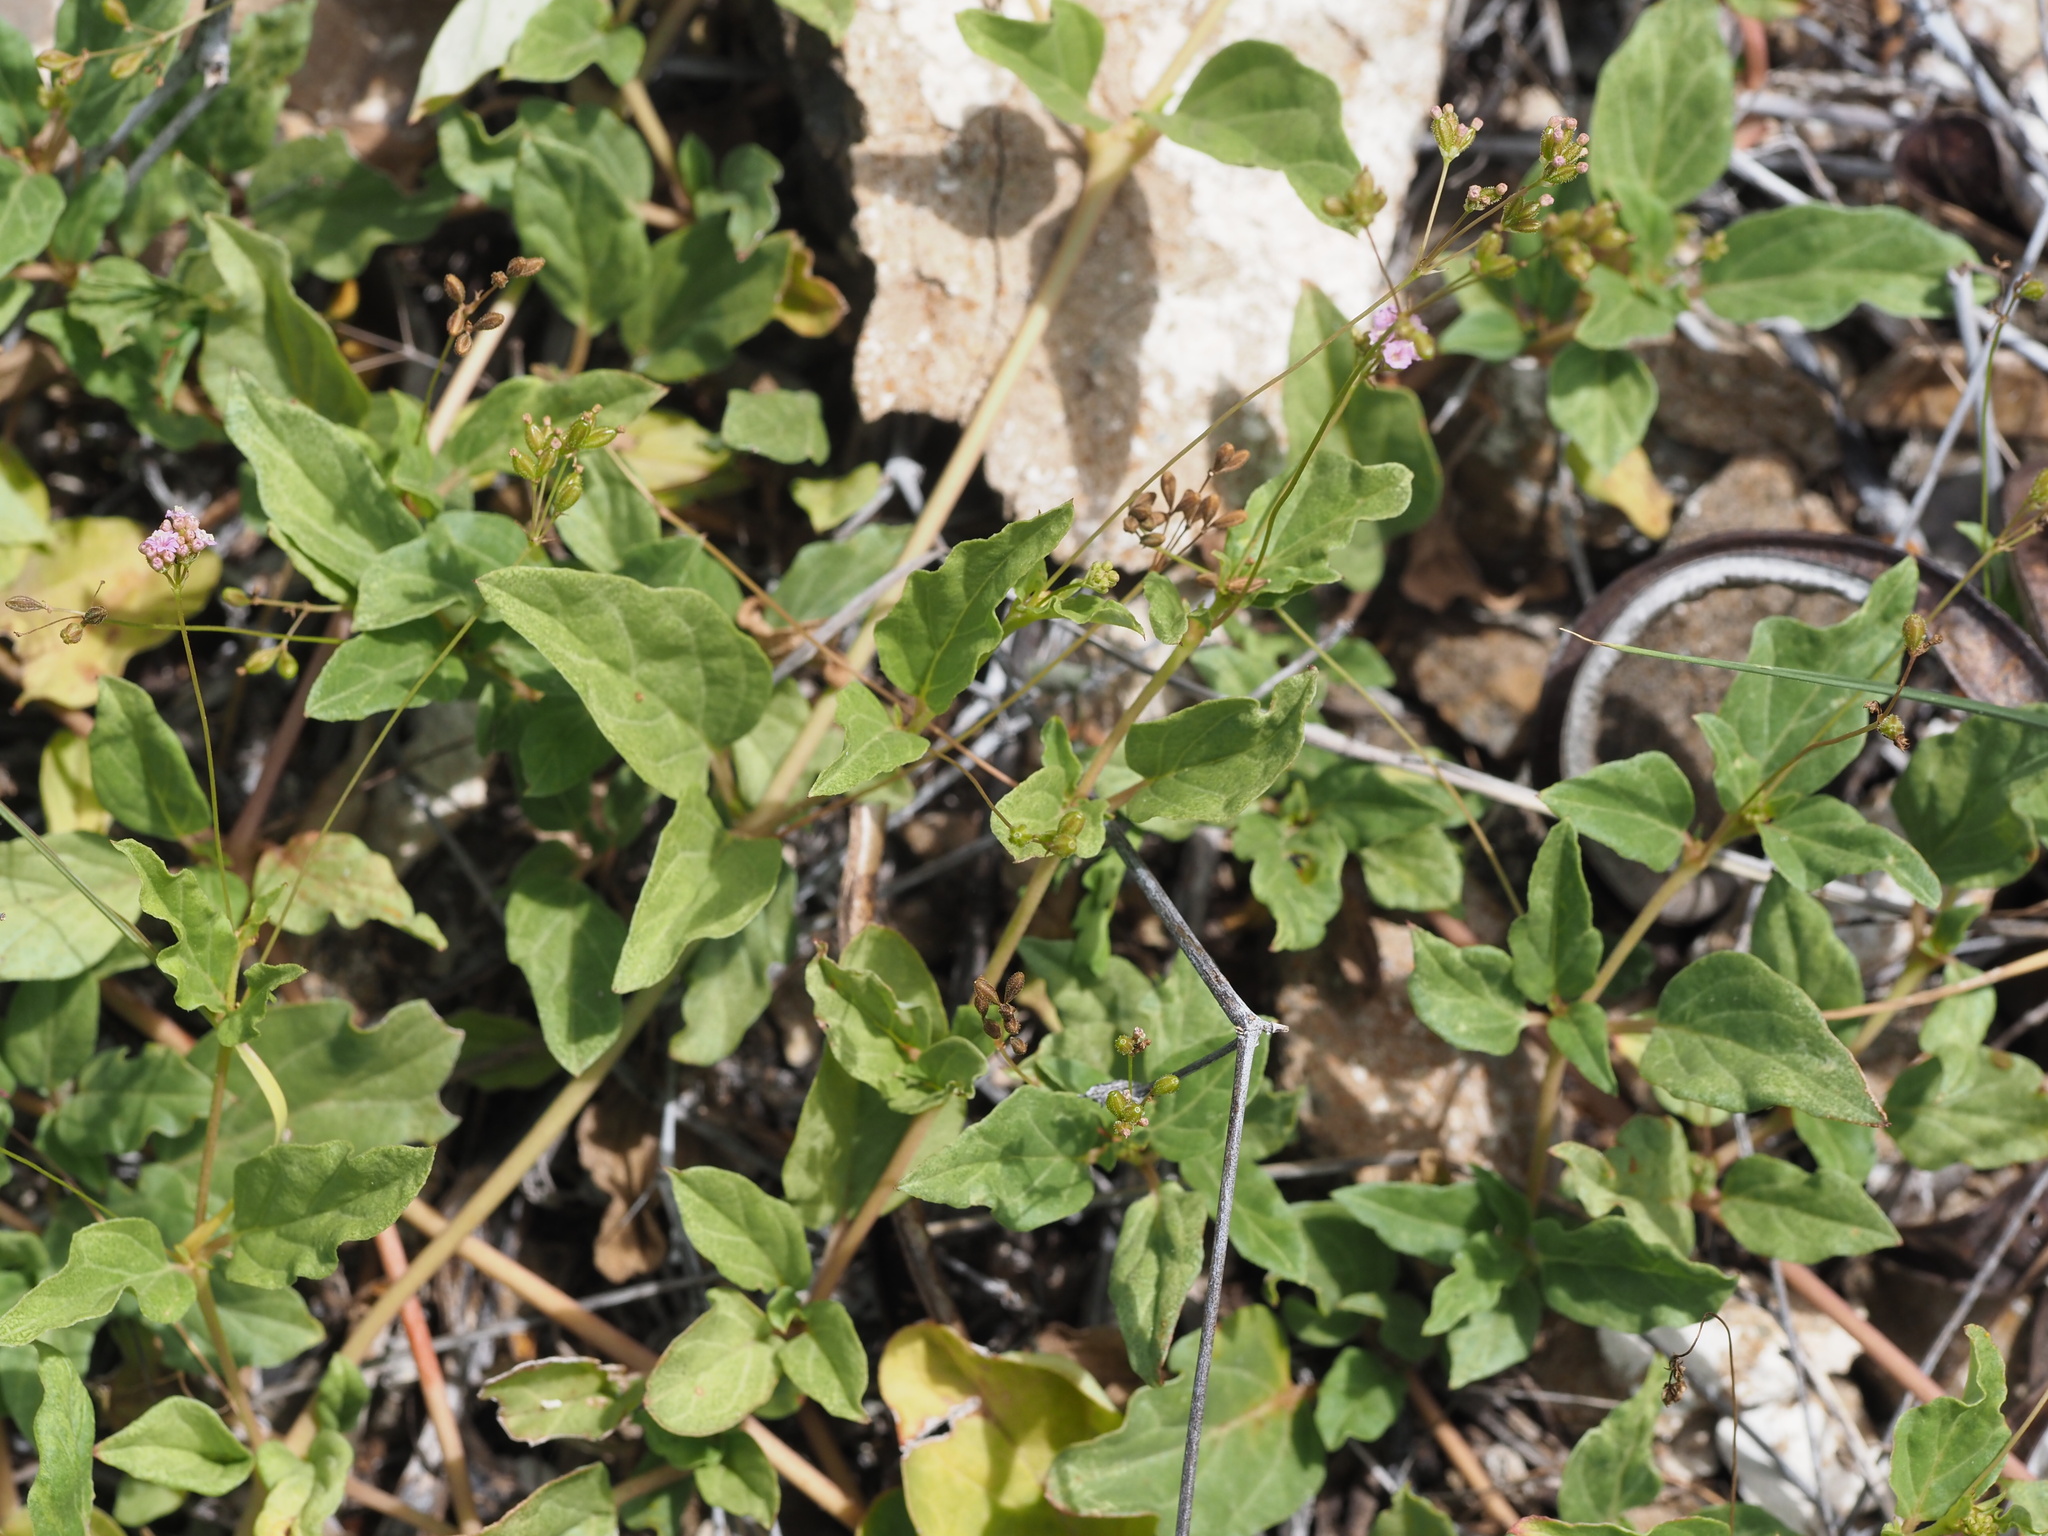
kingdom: Plantae
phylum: Tracheophyta
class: Magnoliopsida
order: Caryophyllales
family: Nyctaginaceae
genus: Boerhavia
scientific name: Boerhavia glabrata
